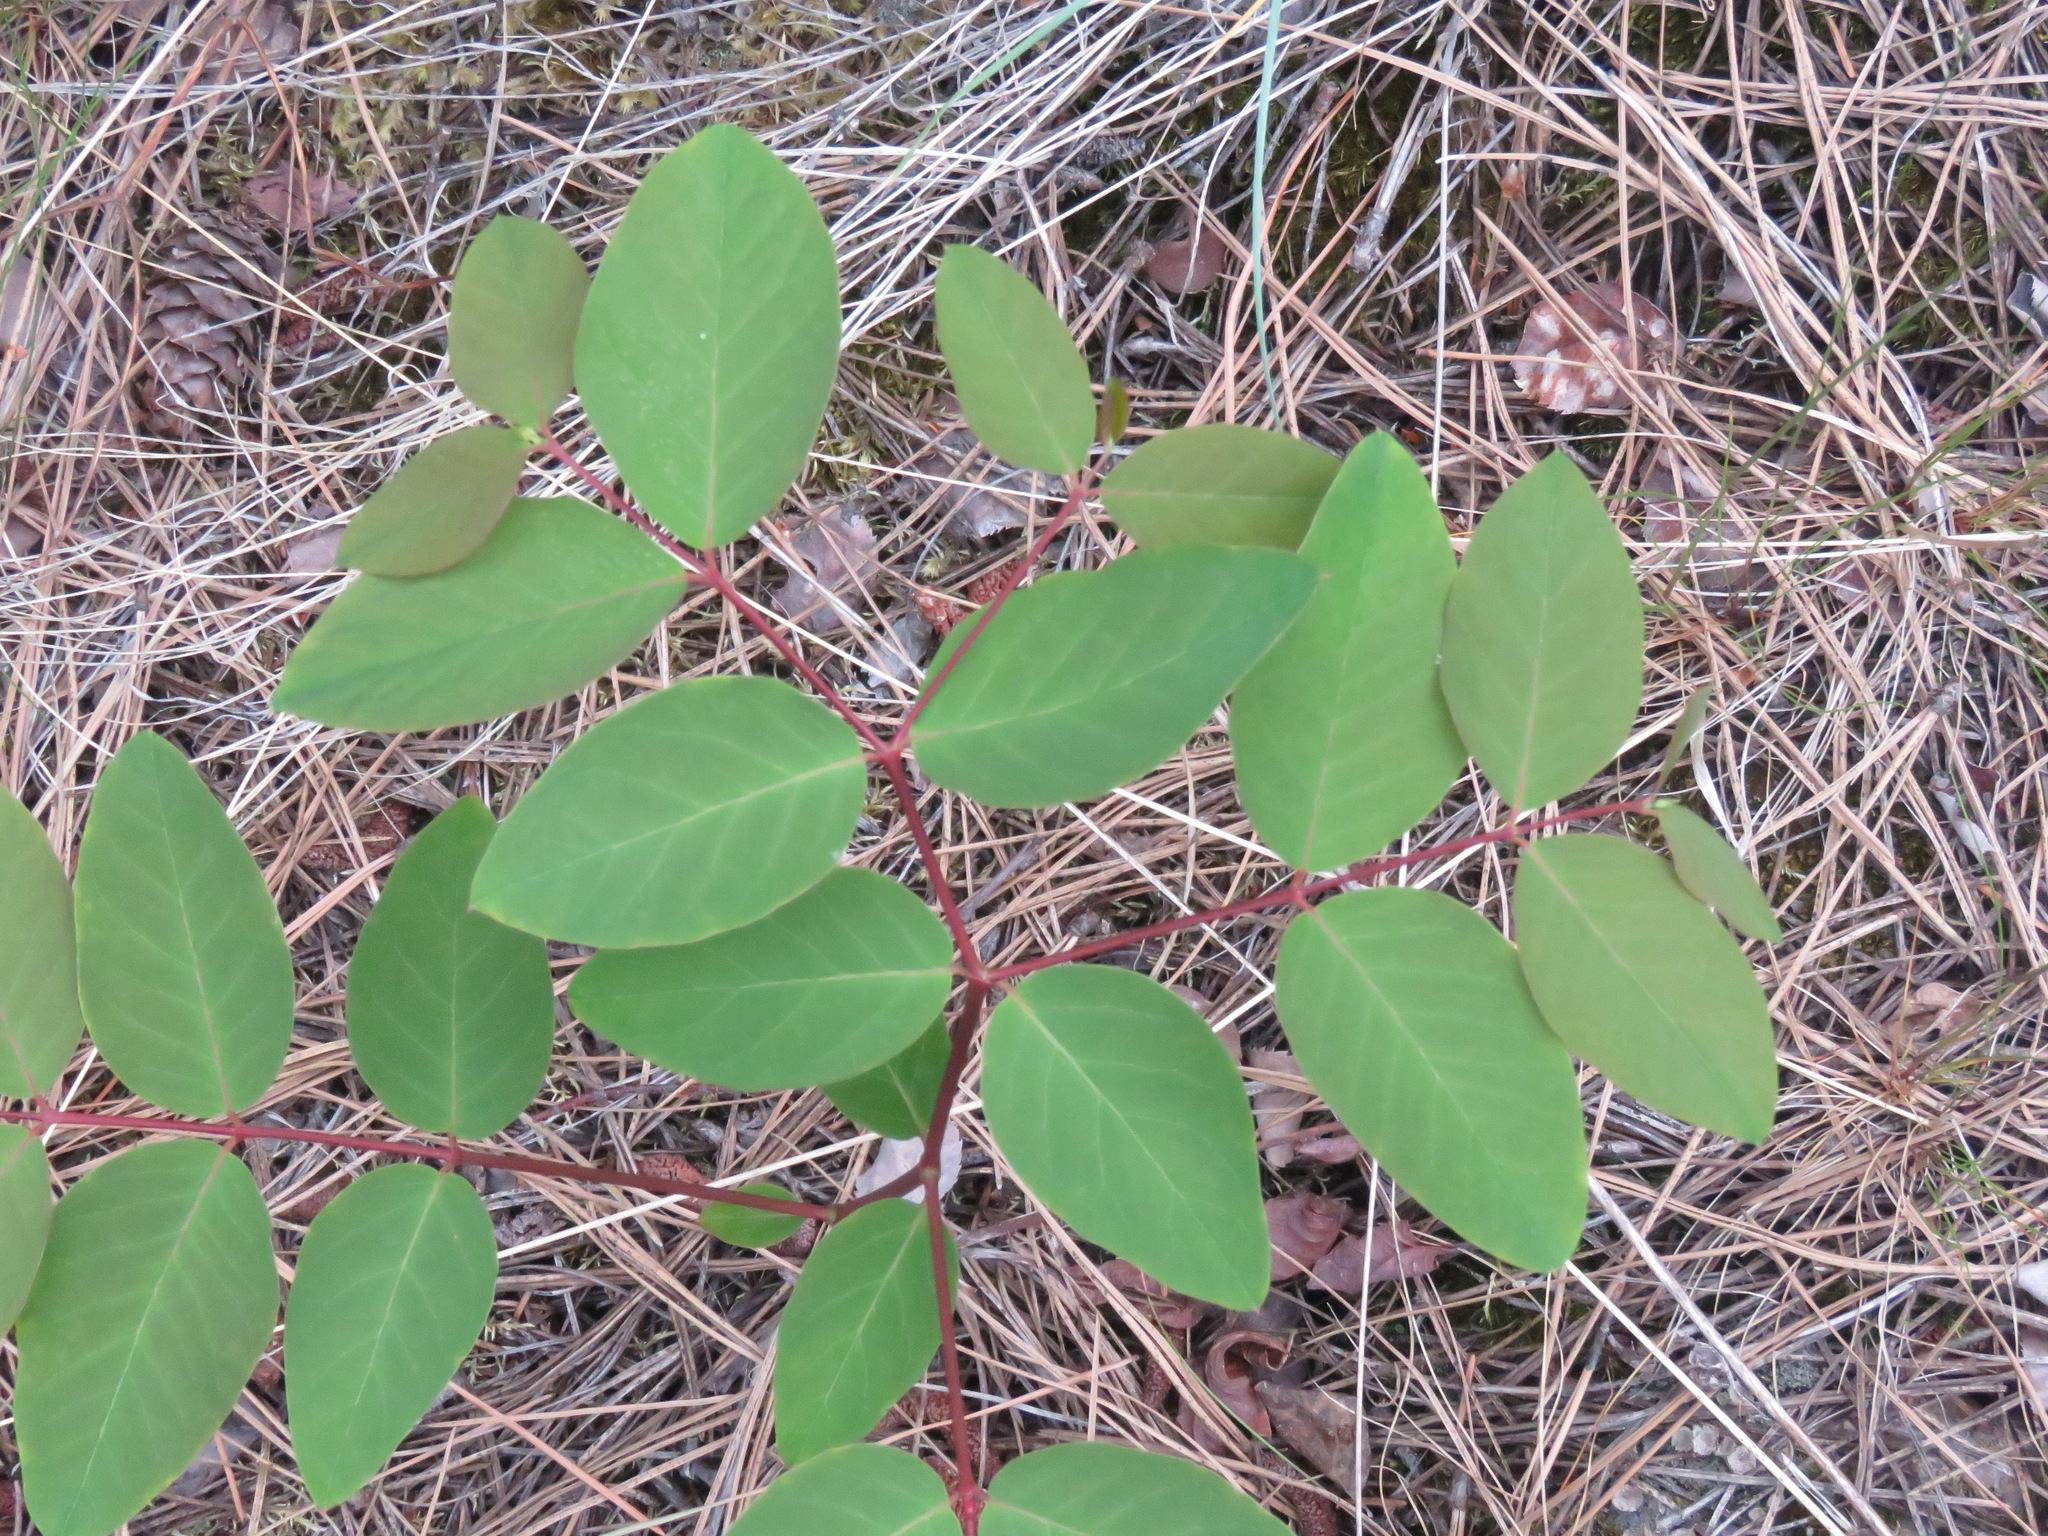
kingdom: Plantae
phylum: Tracheophyta
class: Magnoliopsida
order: Gentianales
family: Apocynaceae
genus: Apocynum
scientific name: Apocynum androsaemifolium
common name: Spreading dogbane
